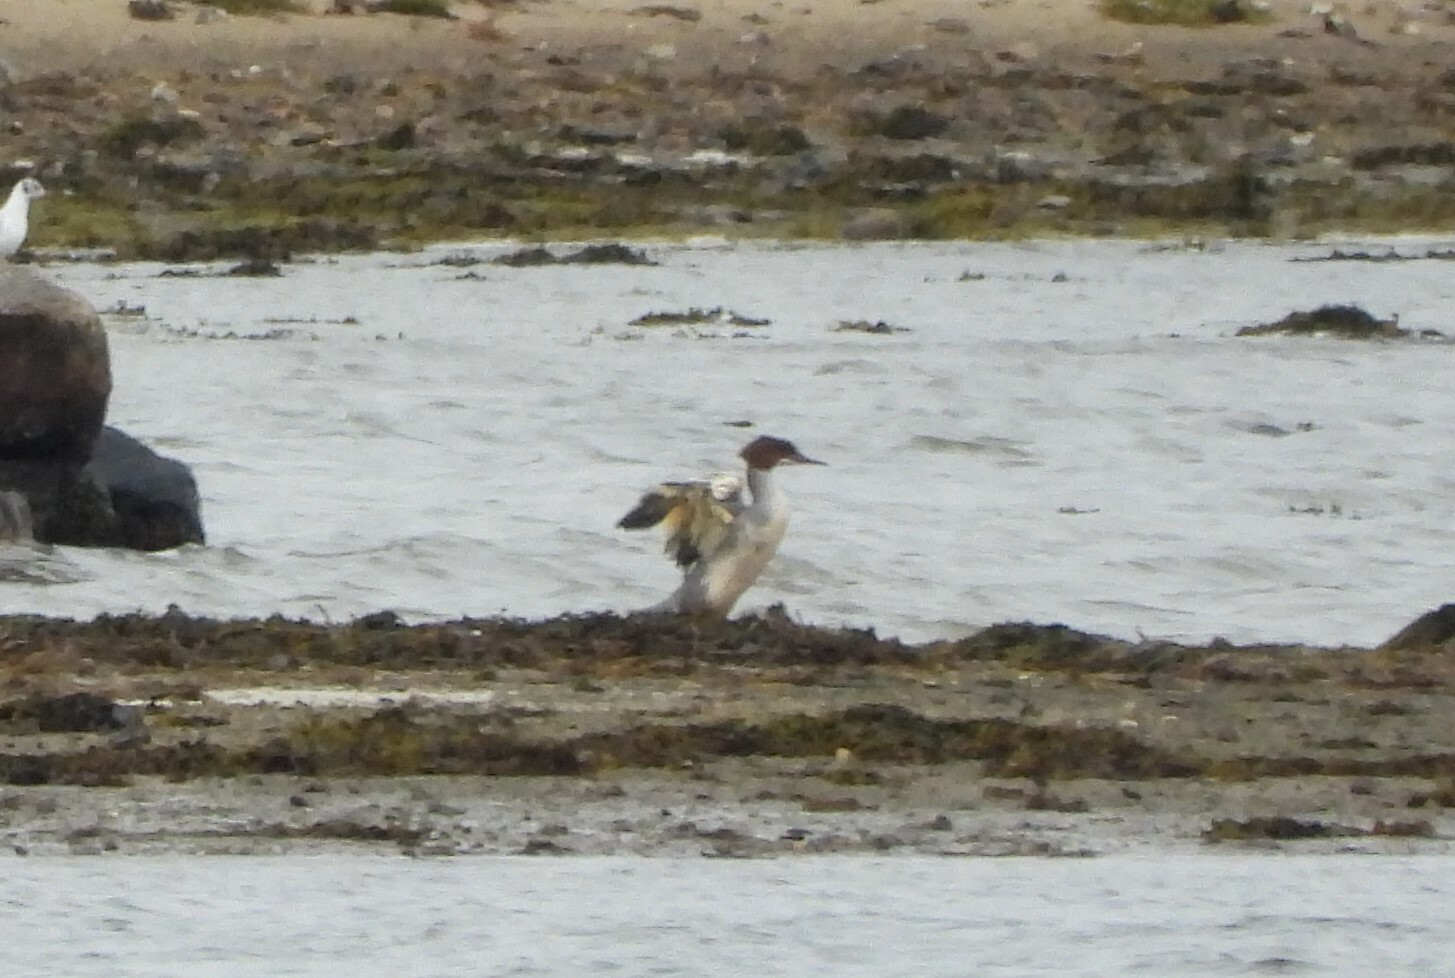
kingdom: Animalia
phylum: Chordata
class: Aves
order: Anseriformes
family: Anatidae
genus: Mergus
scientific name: Mergus merganser
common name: Common merganser
